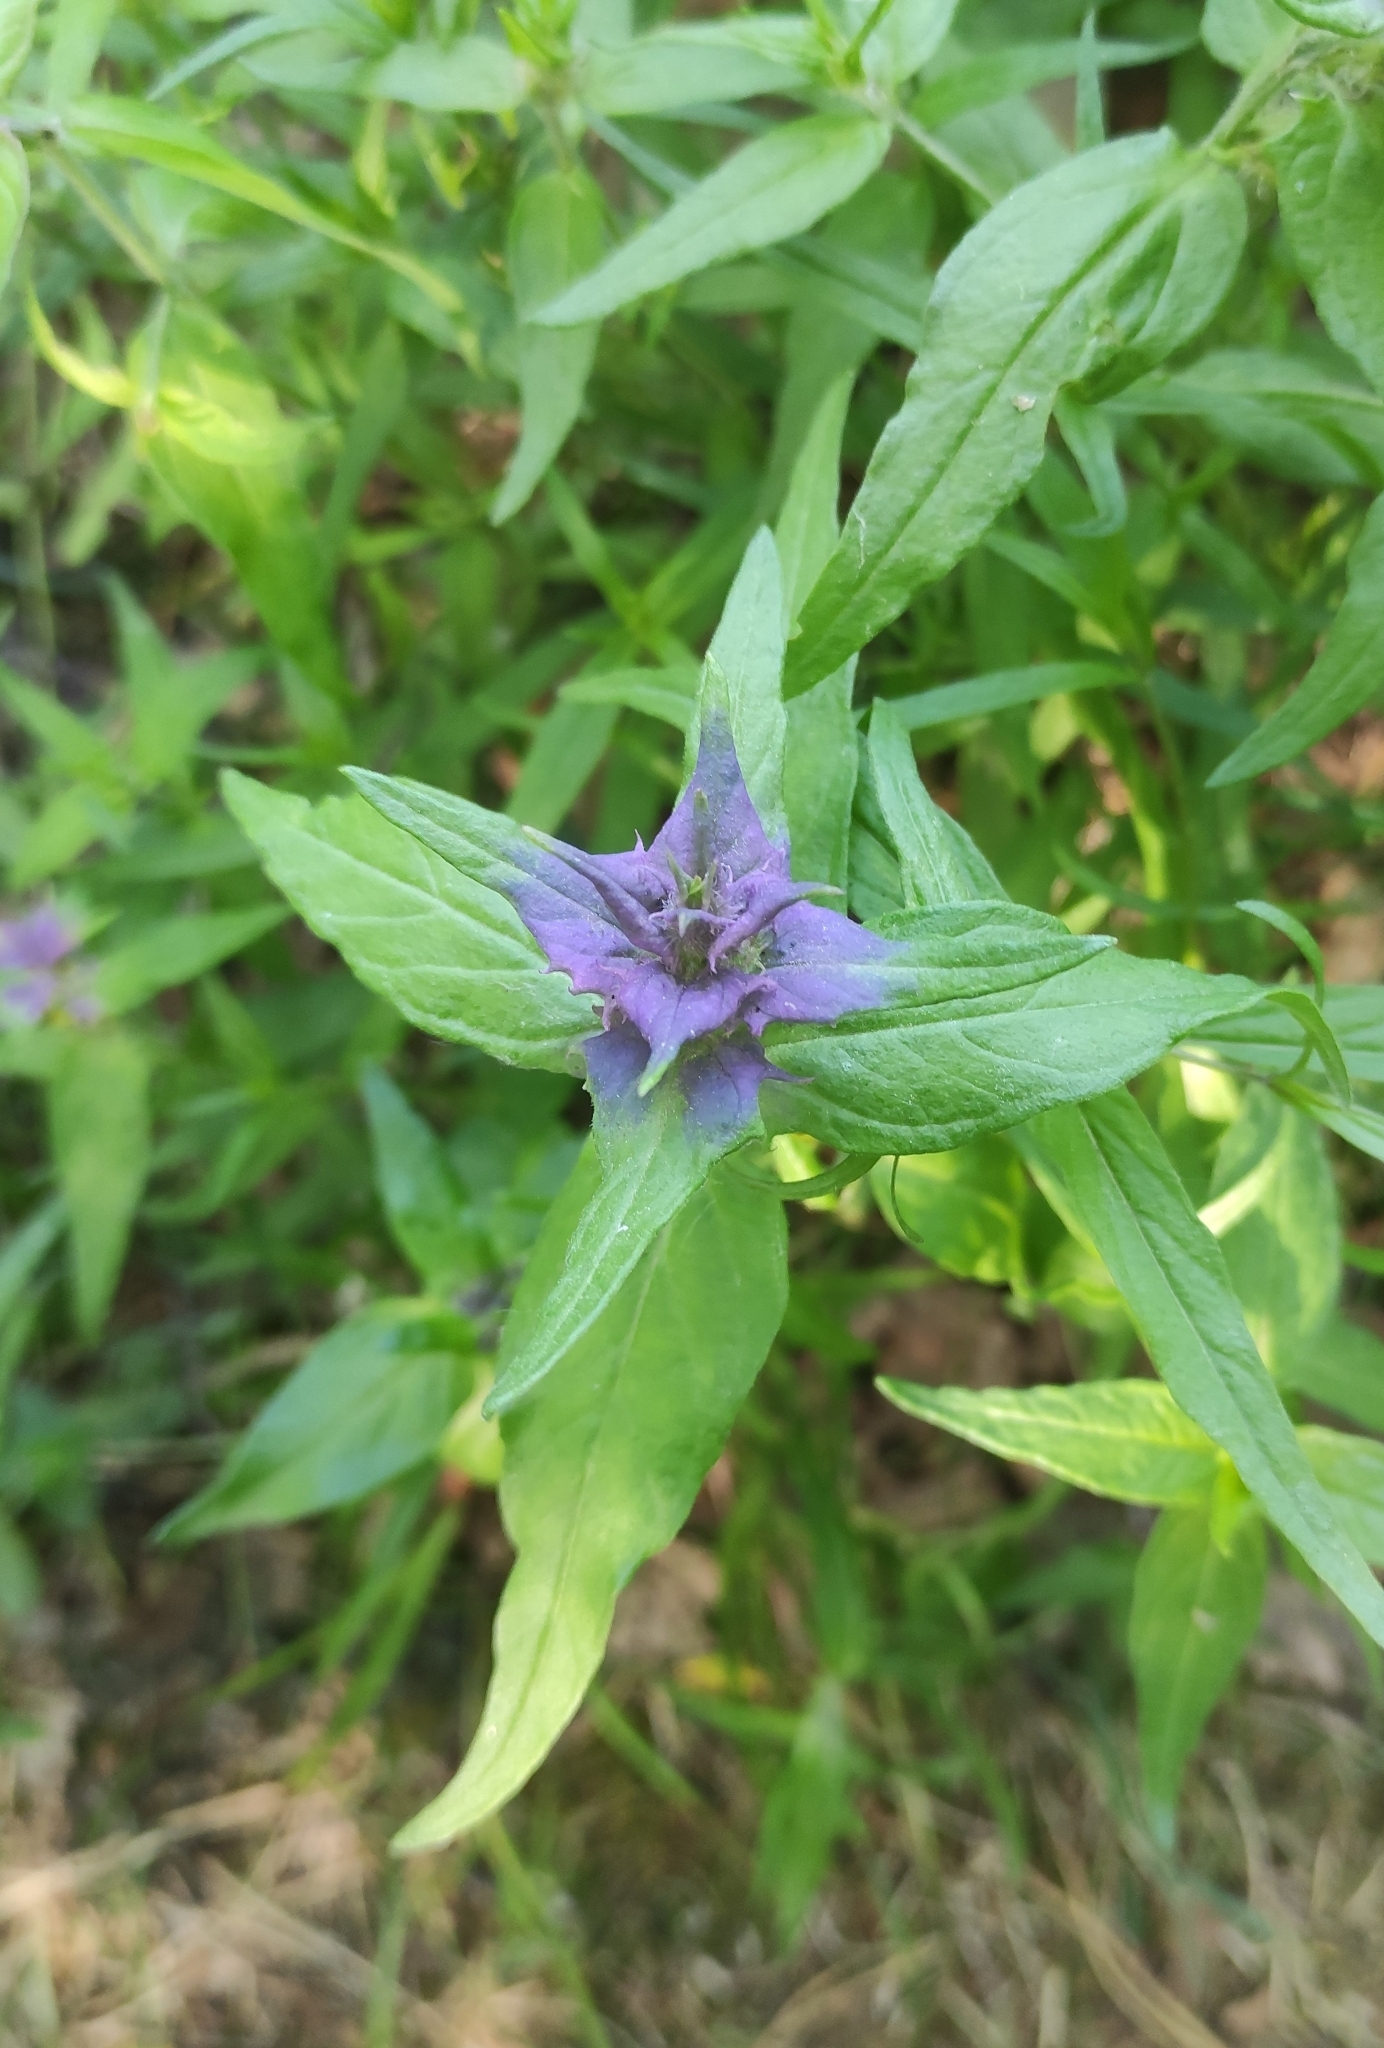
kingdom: Plantae
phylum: Tracheophyta
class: Magnoliopsida
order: Lamiales
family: Orobanchaceae
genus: Melampyrum
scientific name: Melampyrum nemorosum
